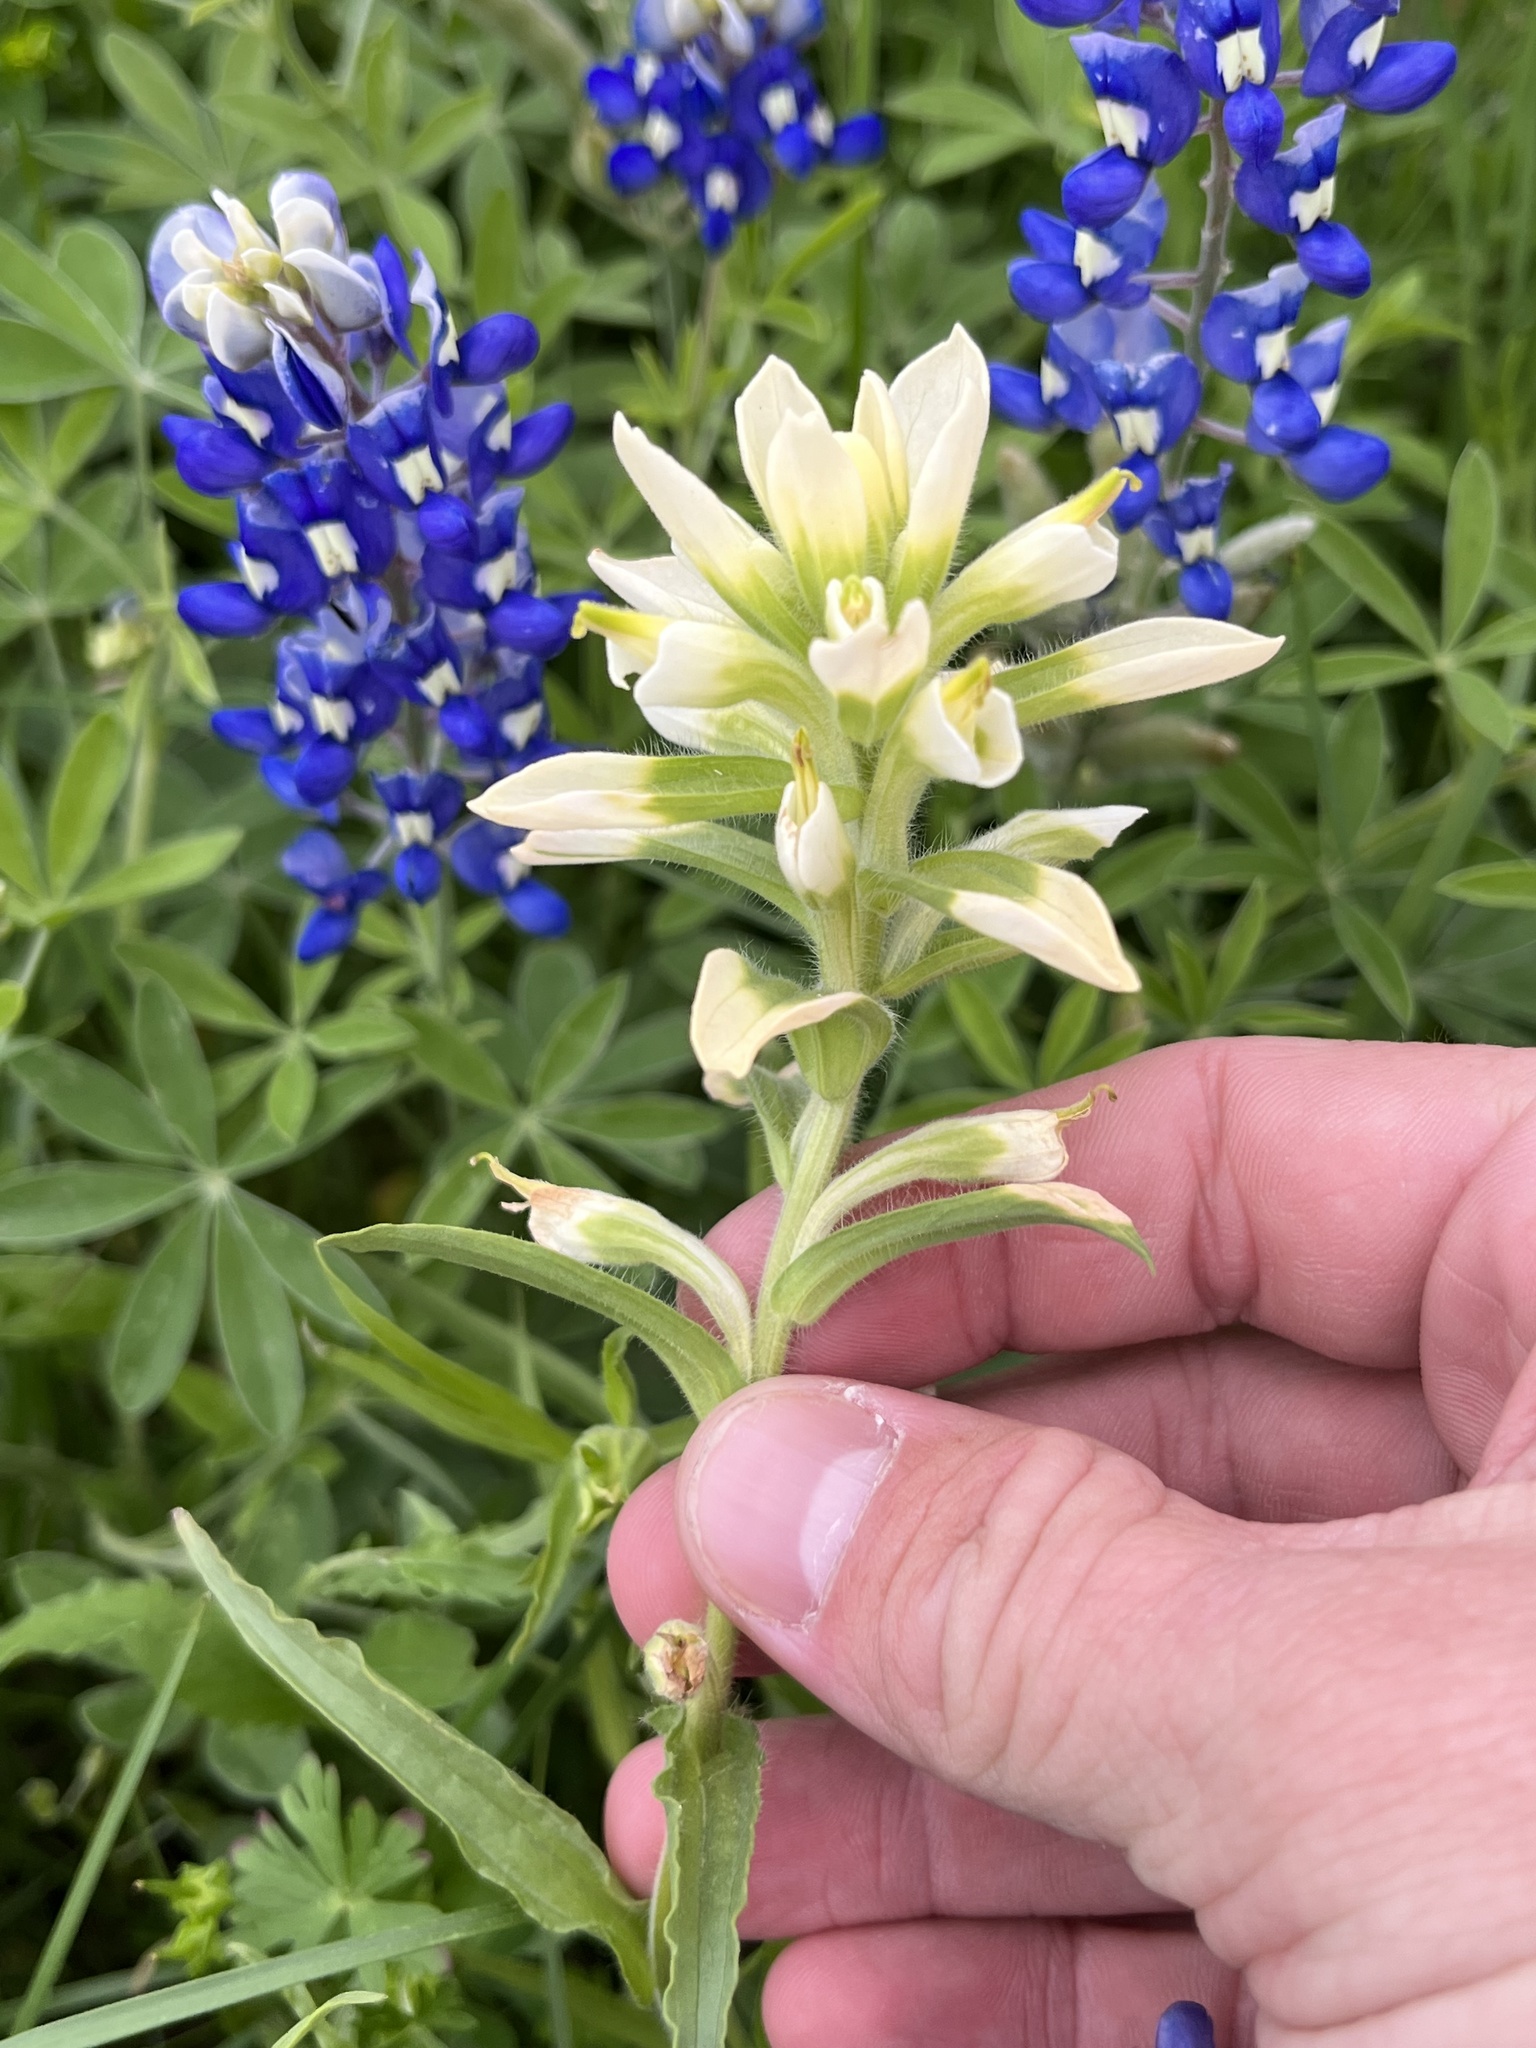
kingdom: Plantae
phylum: Tracheophyta
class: Magnoliopsida
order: Lamiales
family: Orobanchaceae
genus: Castilleja
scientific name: Castilleja indivisa
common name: Texas paintbrush
